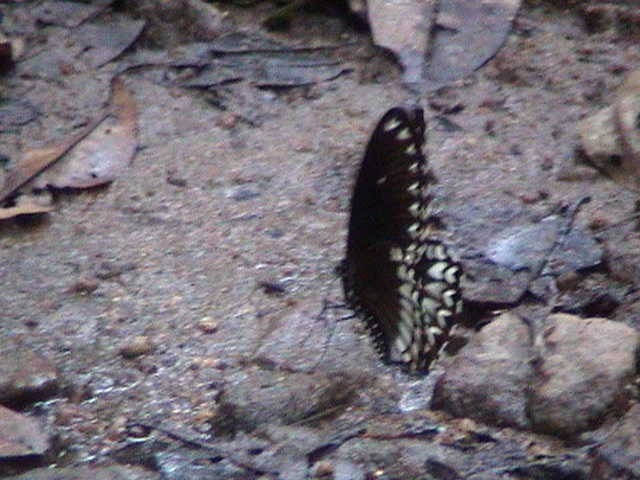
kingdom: Animalia
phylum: Arthropoda
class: Insecta
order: Lepidoptera
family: Papilionidae
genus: Papilio
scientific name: Papilio dravidarum
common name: Malabar raven
